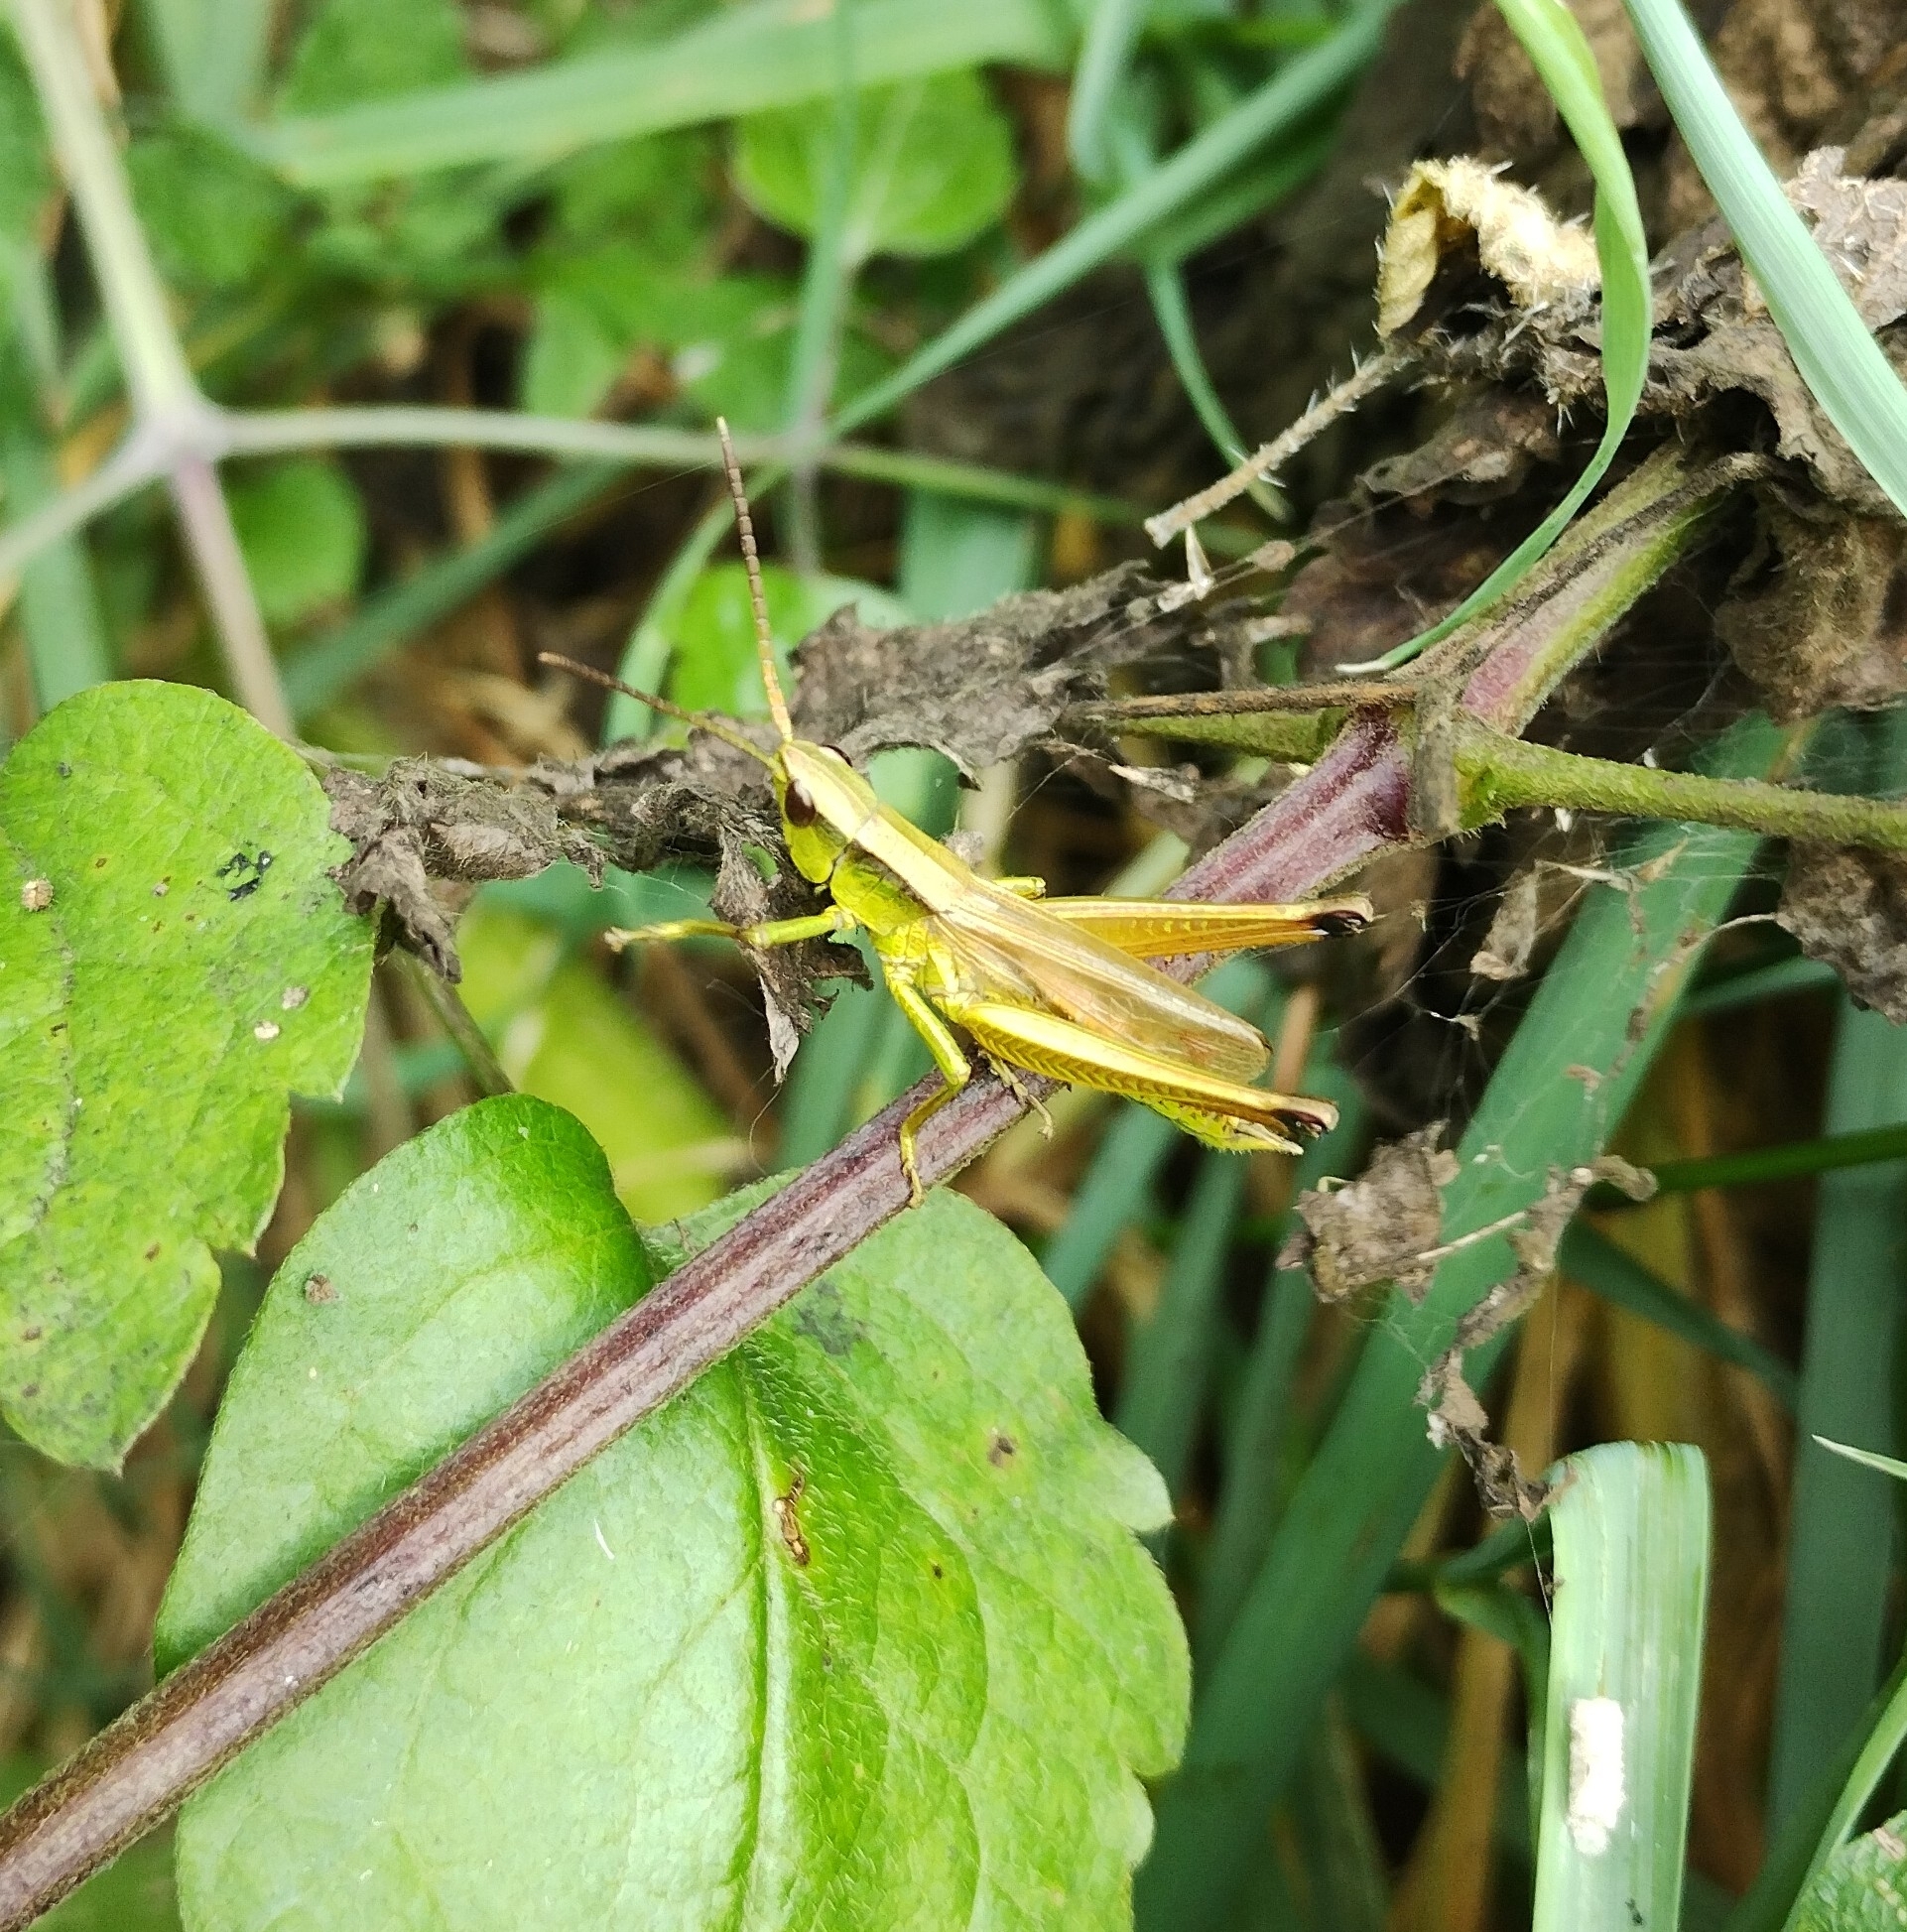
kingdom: Animalia
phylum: Arthropoda
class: Insecta
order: Orthoptera
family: Acrididae
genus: Chrysochraon
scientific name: Chrysochraon dispar
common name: Large gold grasshopper
